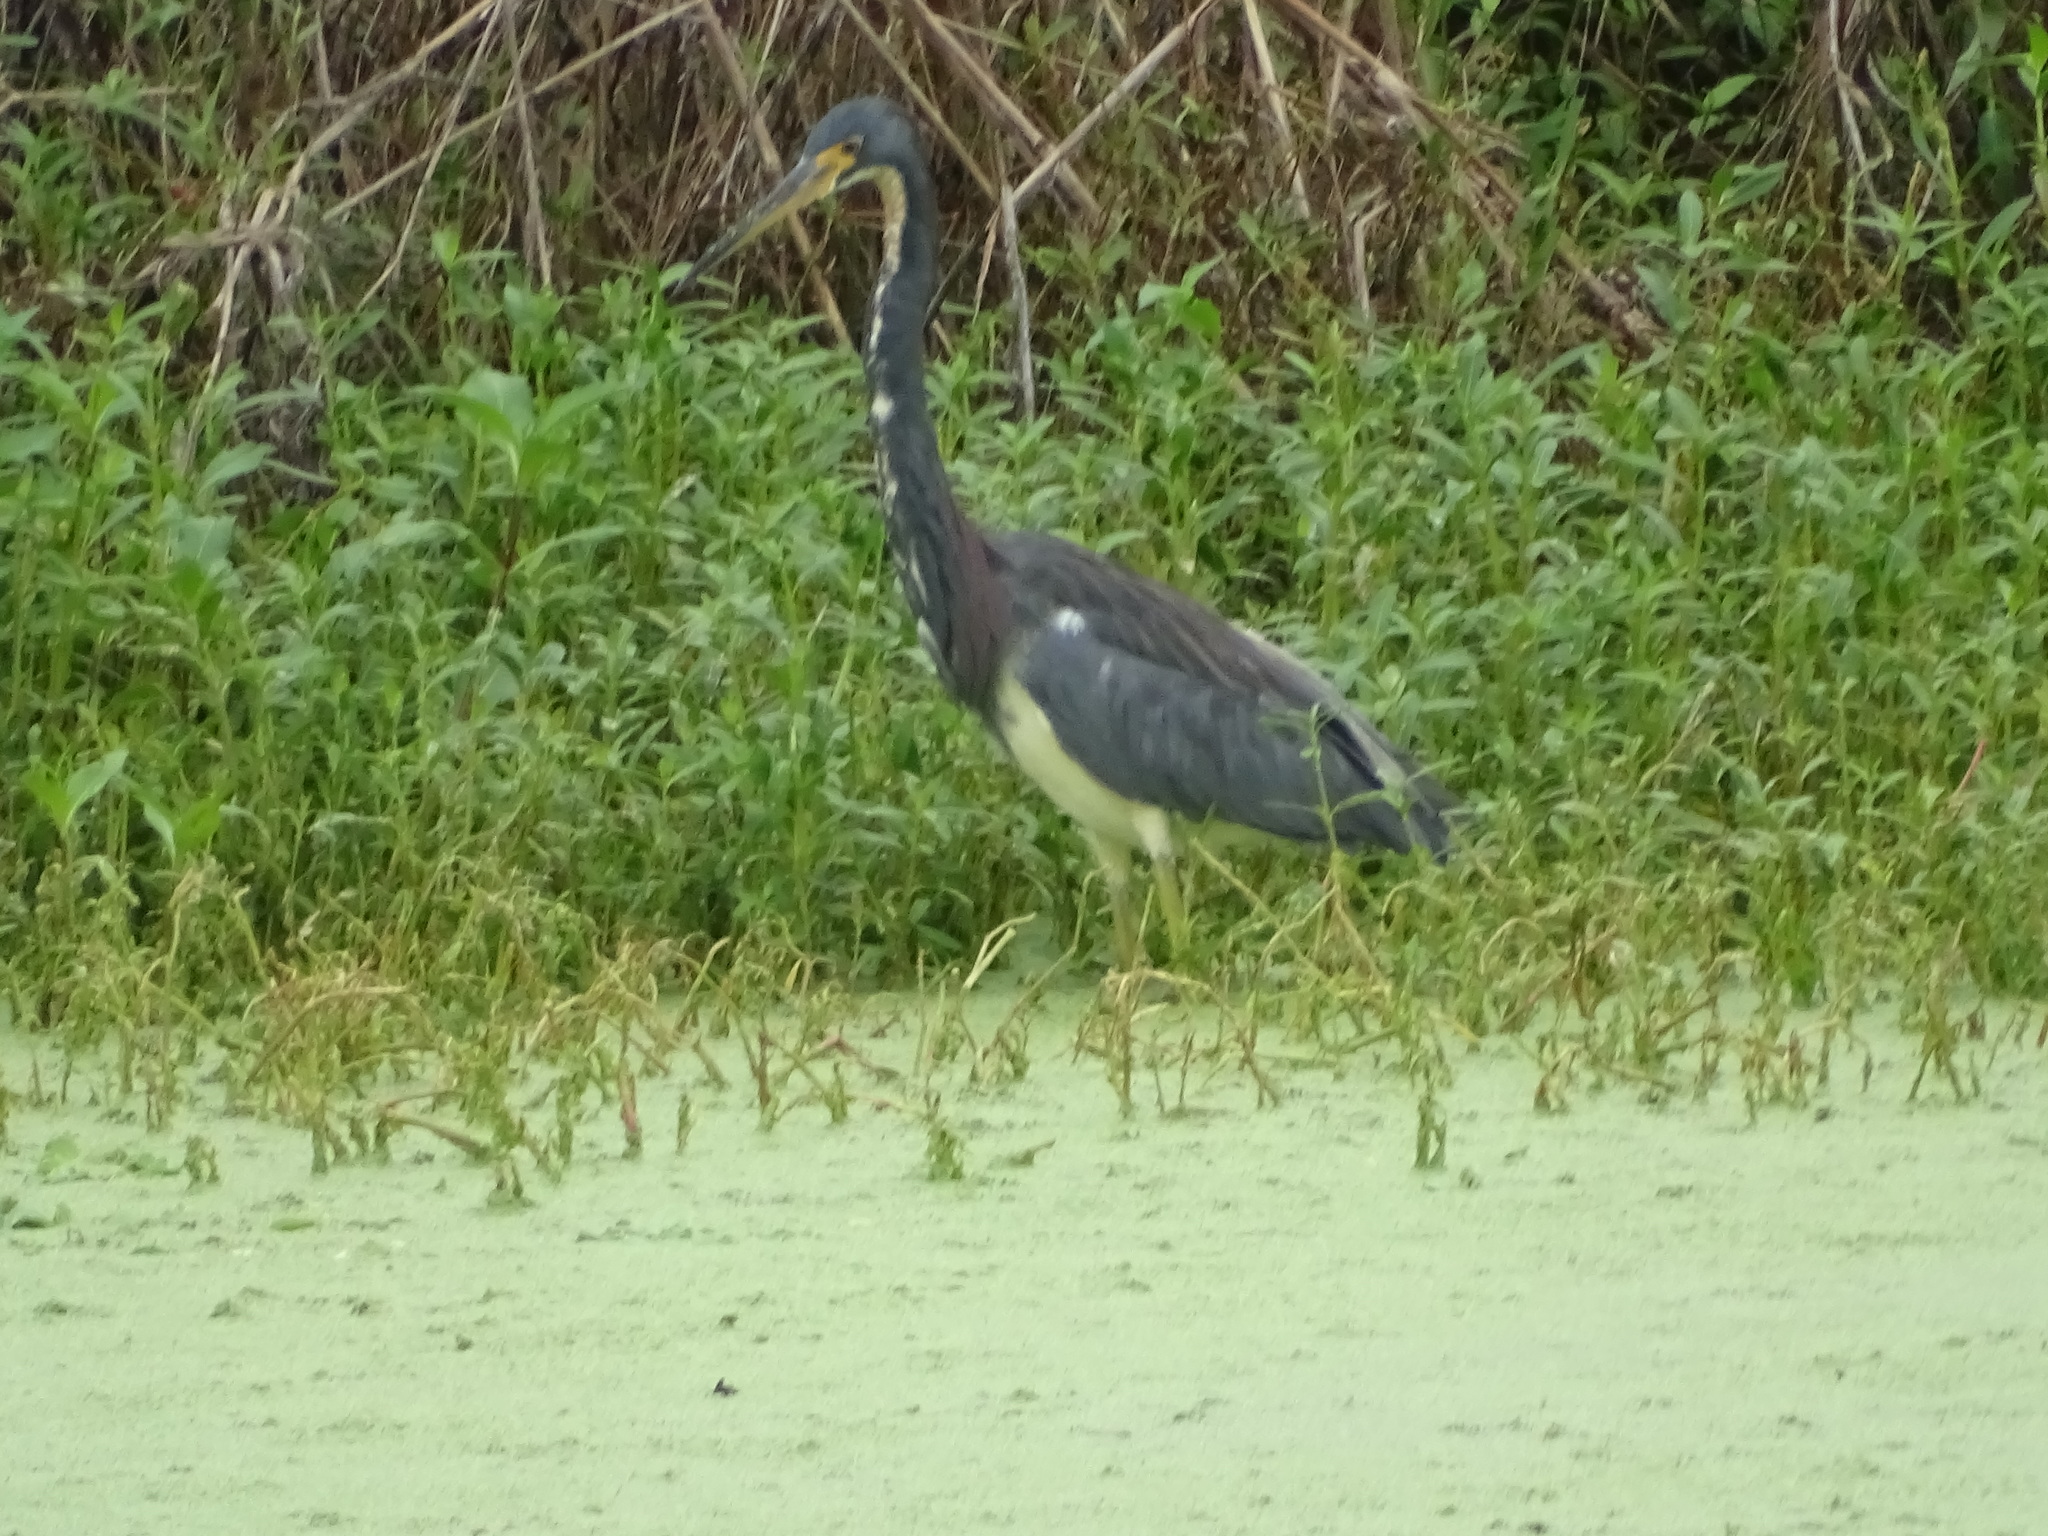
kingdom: Animalia
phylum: Chordata
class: Aves
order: Pelecaniformes
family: Ardeidae
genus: Egretta
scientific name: Egretta tricolor
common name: Tricolored heron
